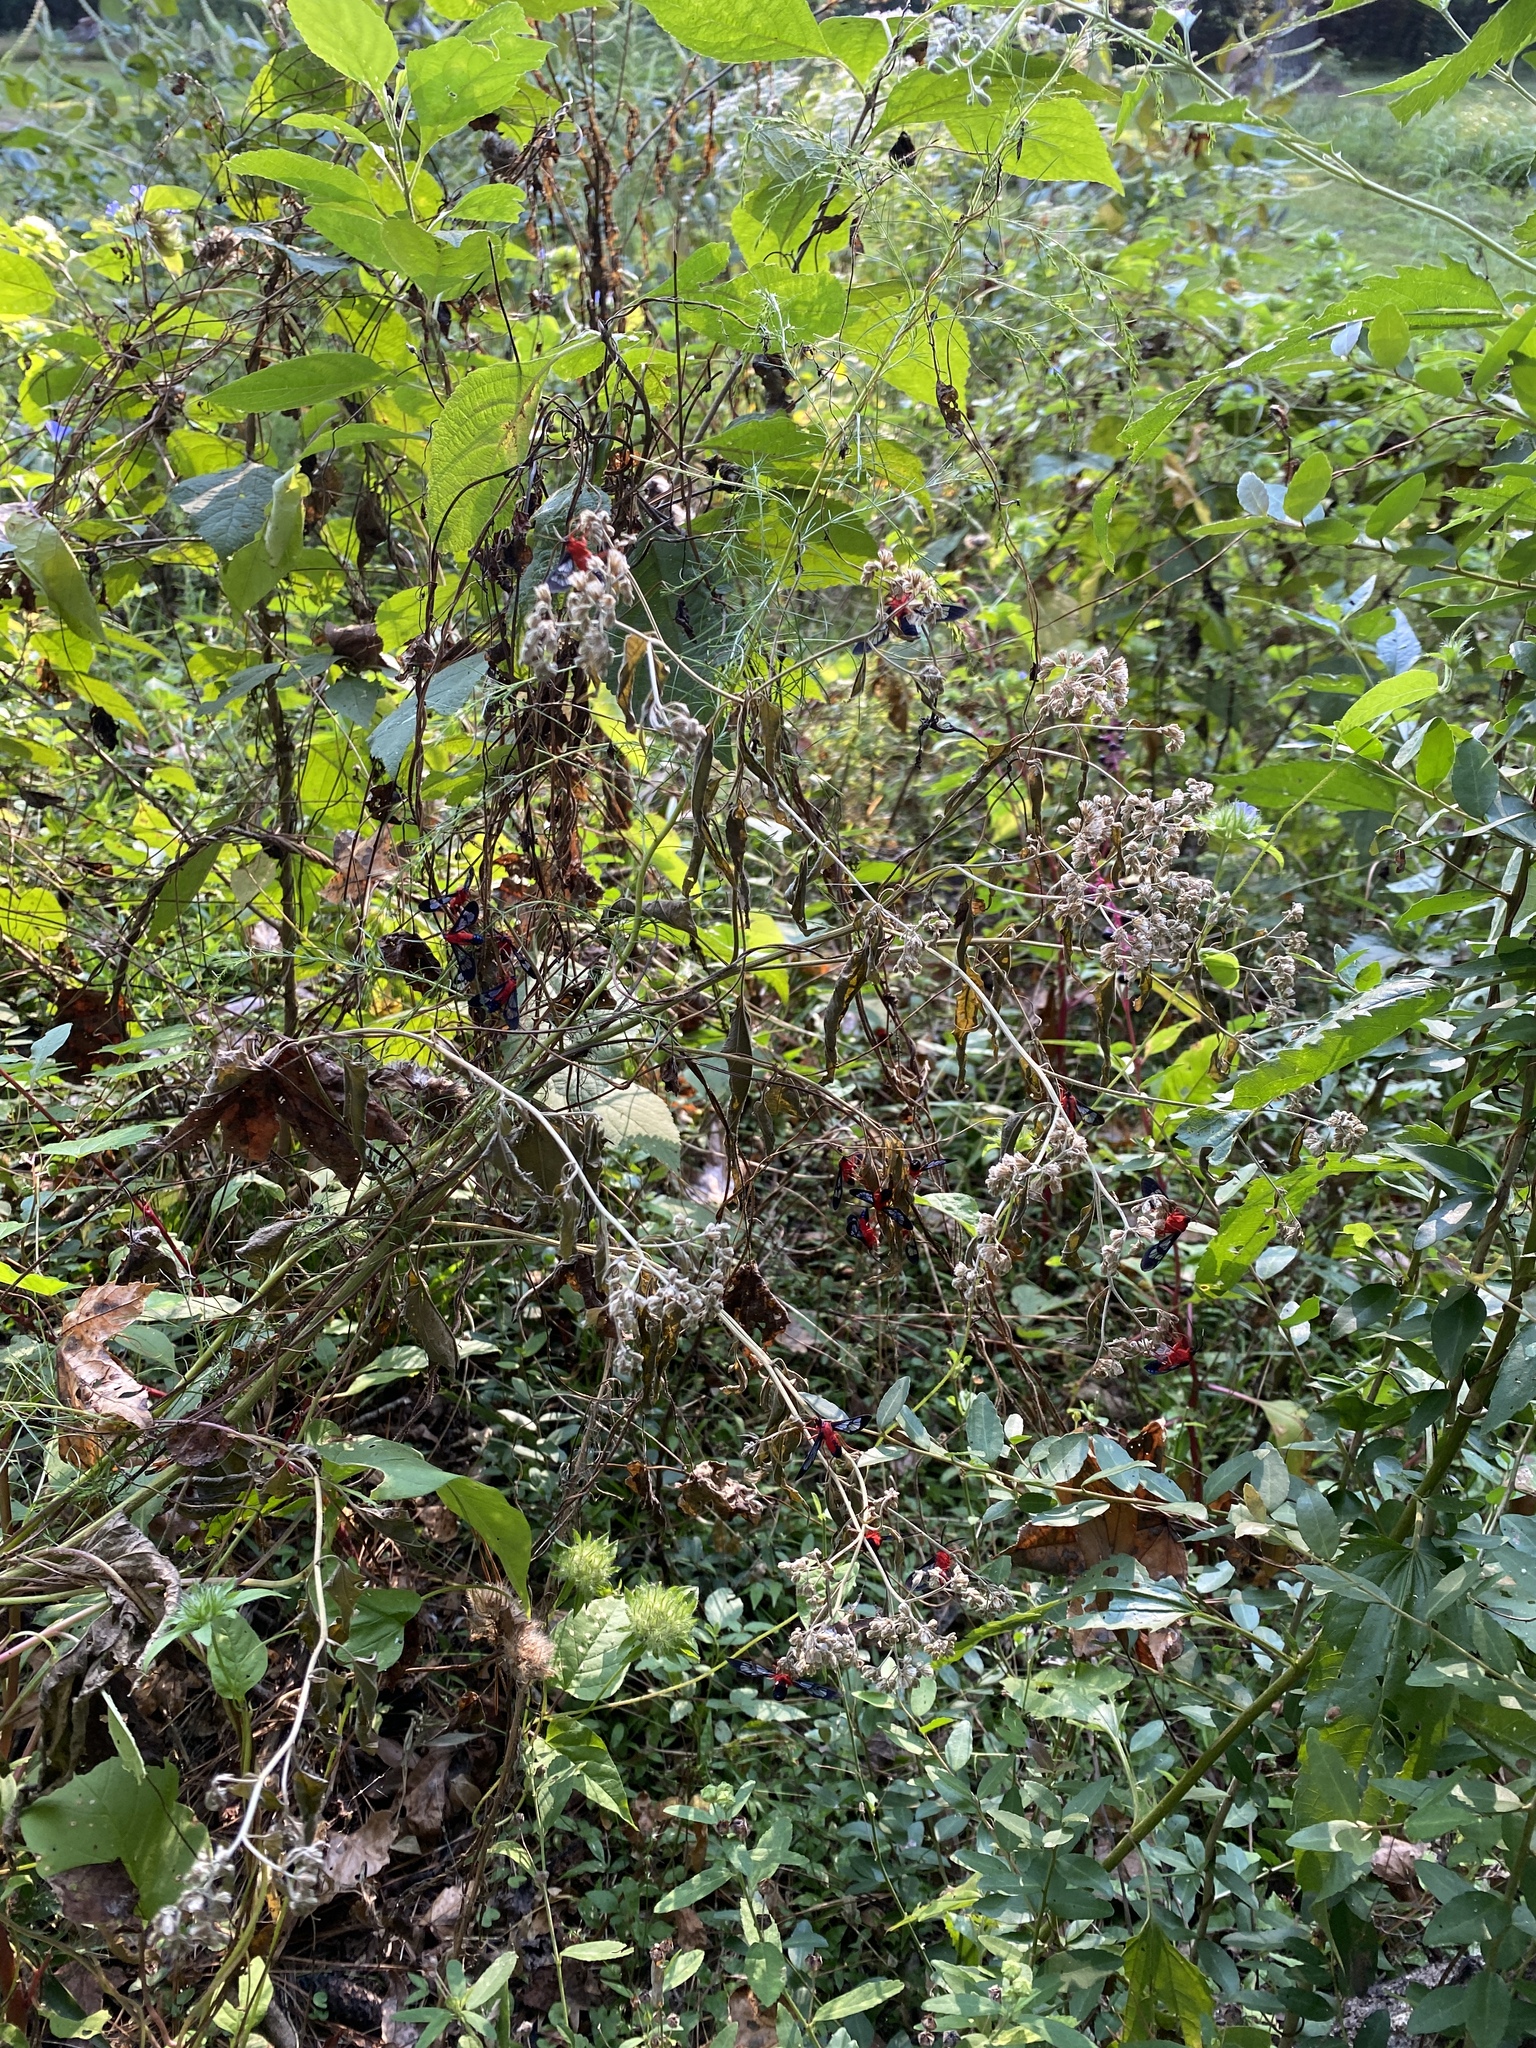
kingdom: Animalia
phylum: Arthropoda
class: Insecta
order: Lepidoptera
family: Erebidae
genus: Cosmosoma
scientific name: Cosmosoma myrodora
